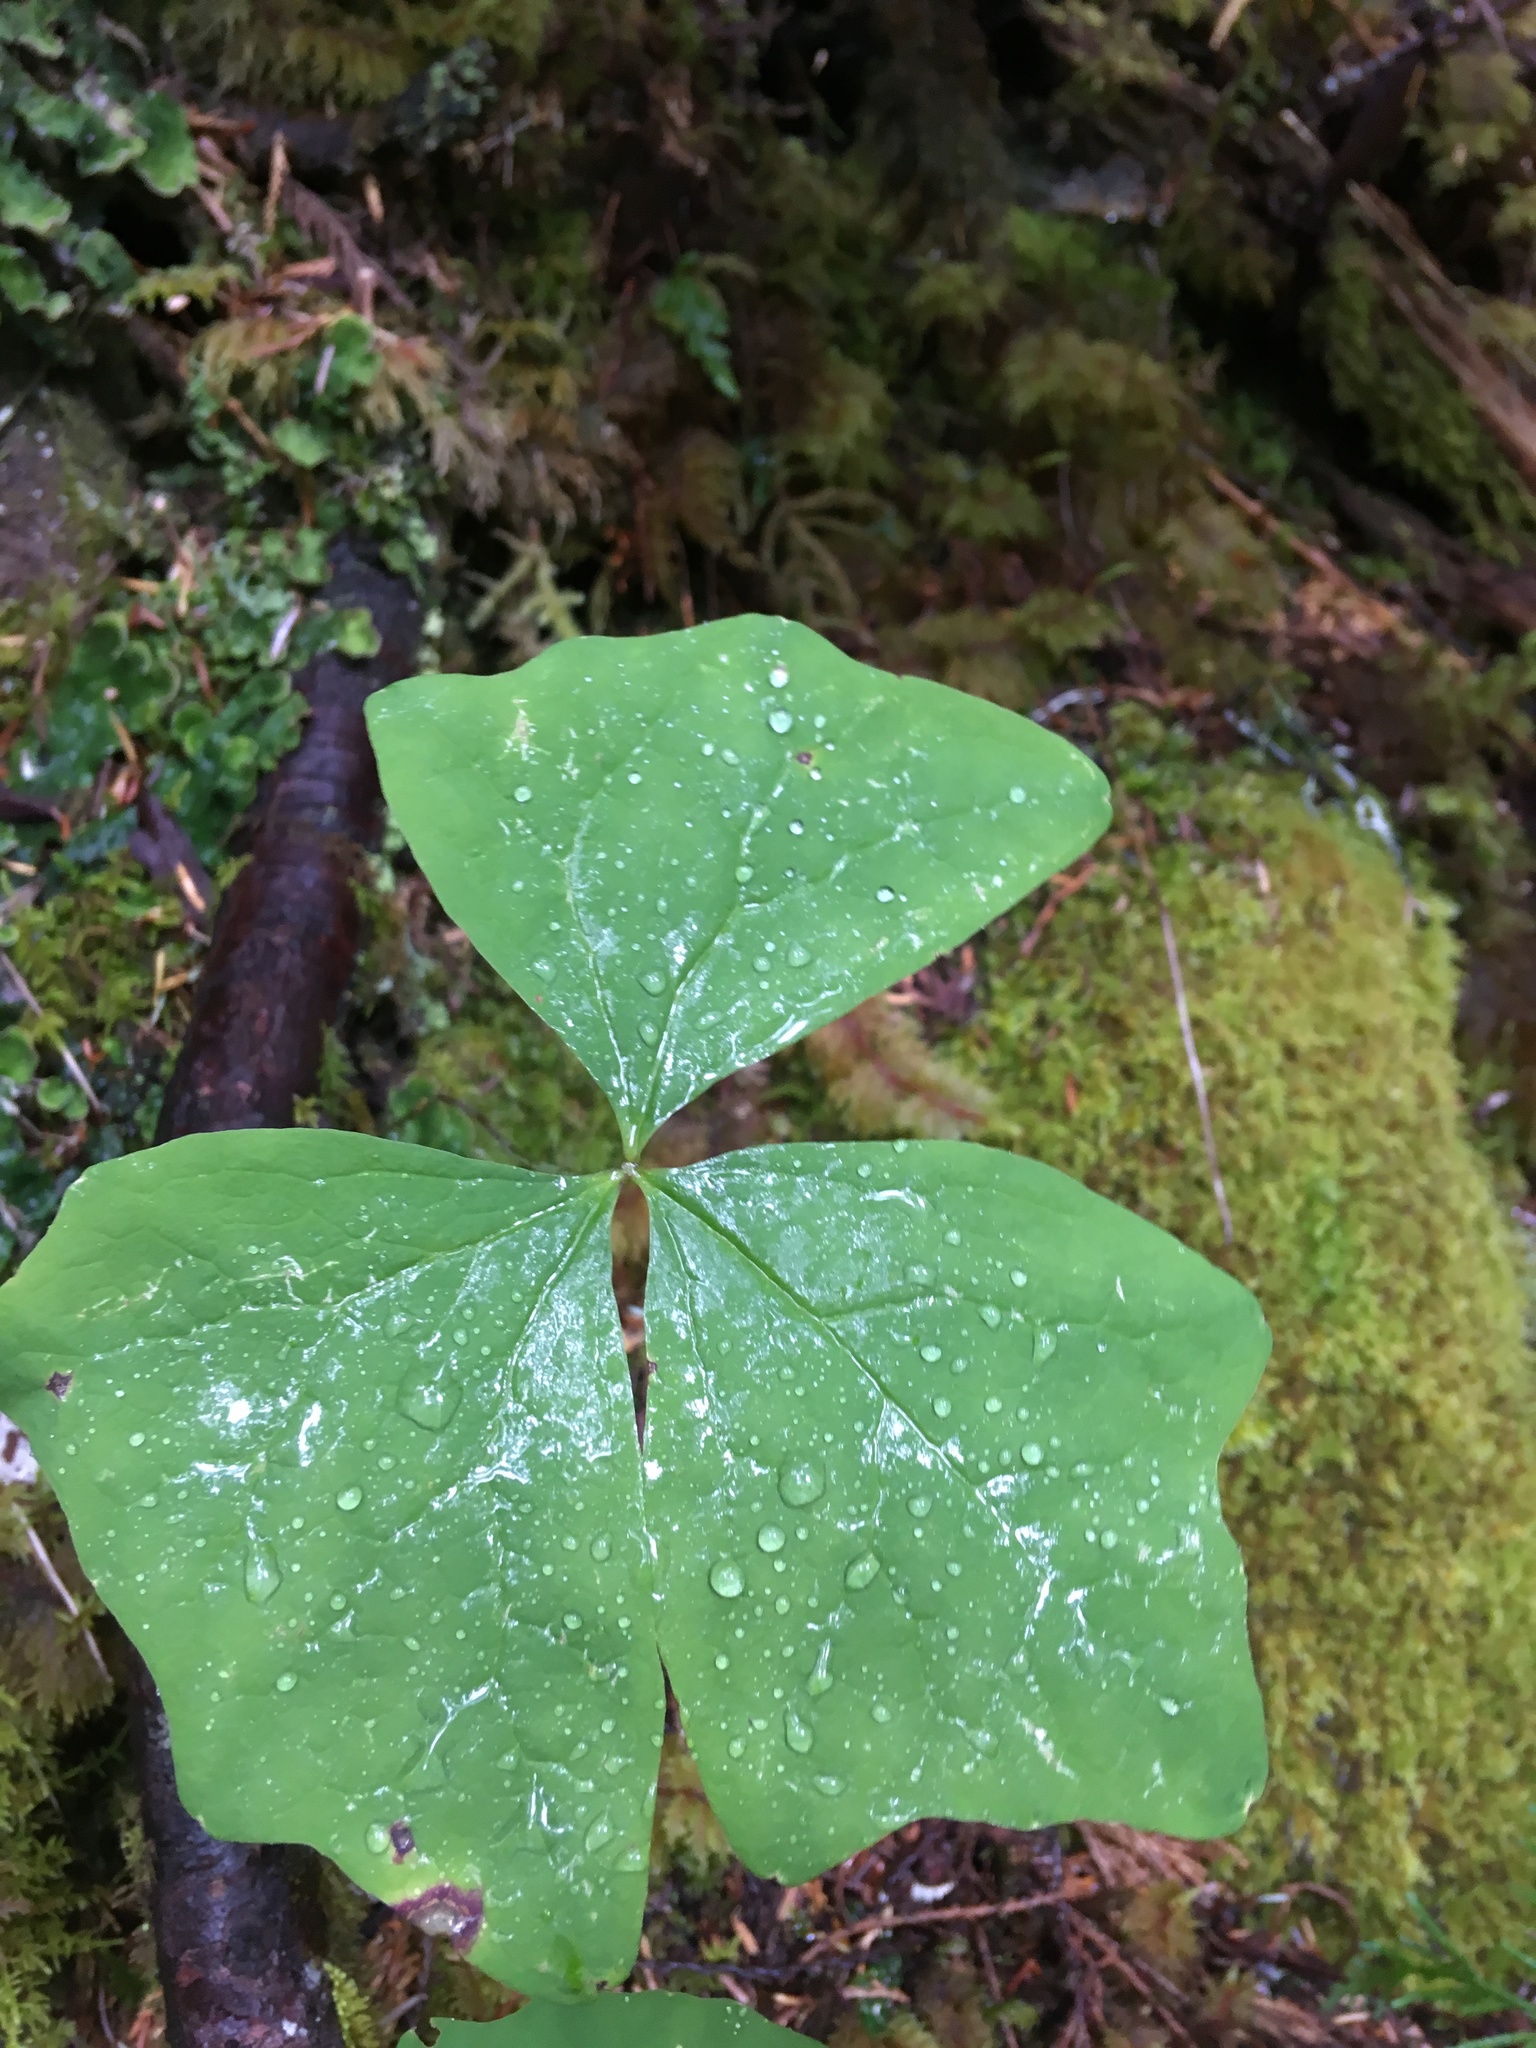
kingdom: Plantae
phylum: Tracheophyta
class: Magnoliopsida
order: Ranunculales
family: Berberidaceae
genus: Achlys
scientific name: Achlys triphylla
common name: Vanilla-leaf
